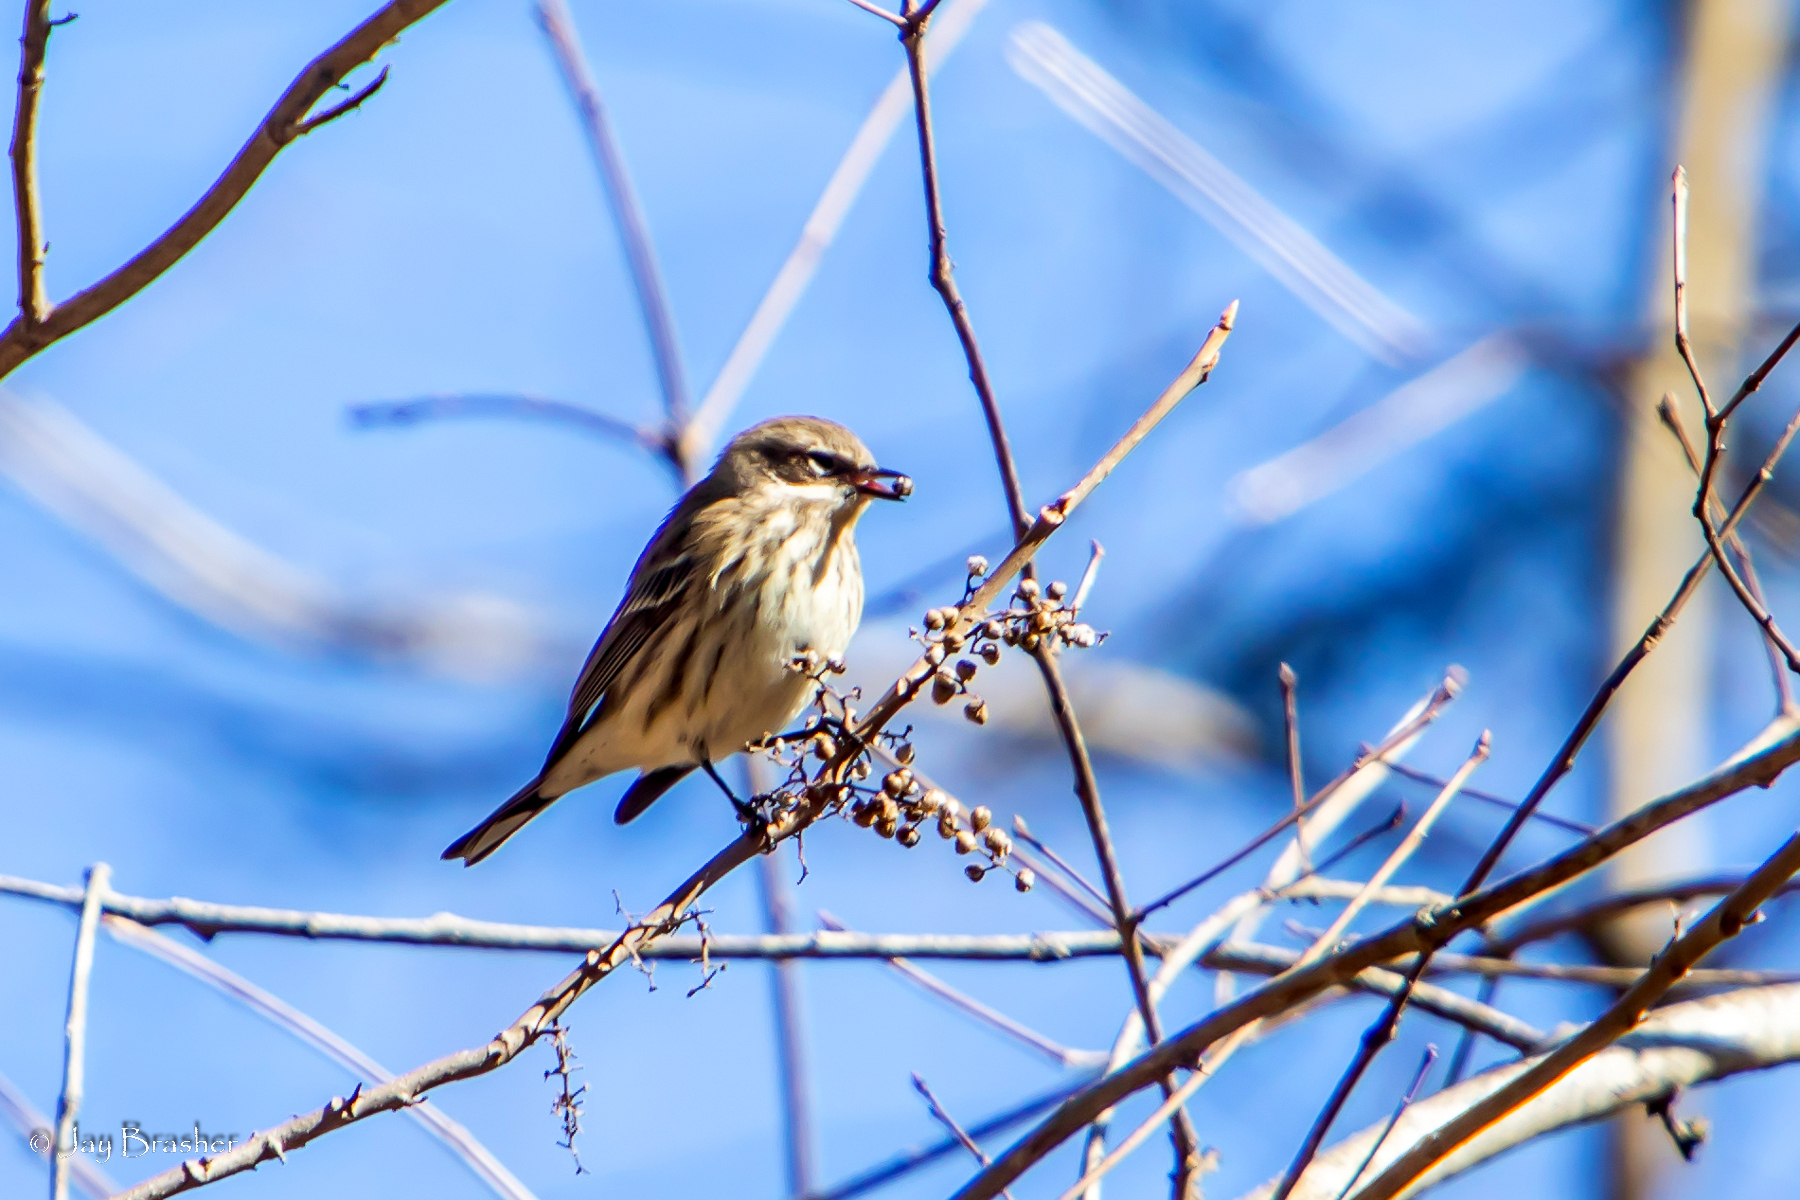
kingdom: Animalia
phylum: Chordata
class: Aves
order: Passeriformes
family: Parulidae
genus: Setophaga
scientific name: Setophaga coronata
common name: Myrtle warbler
